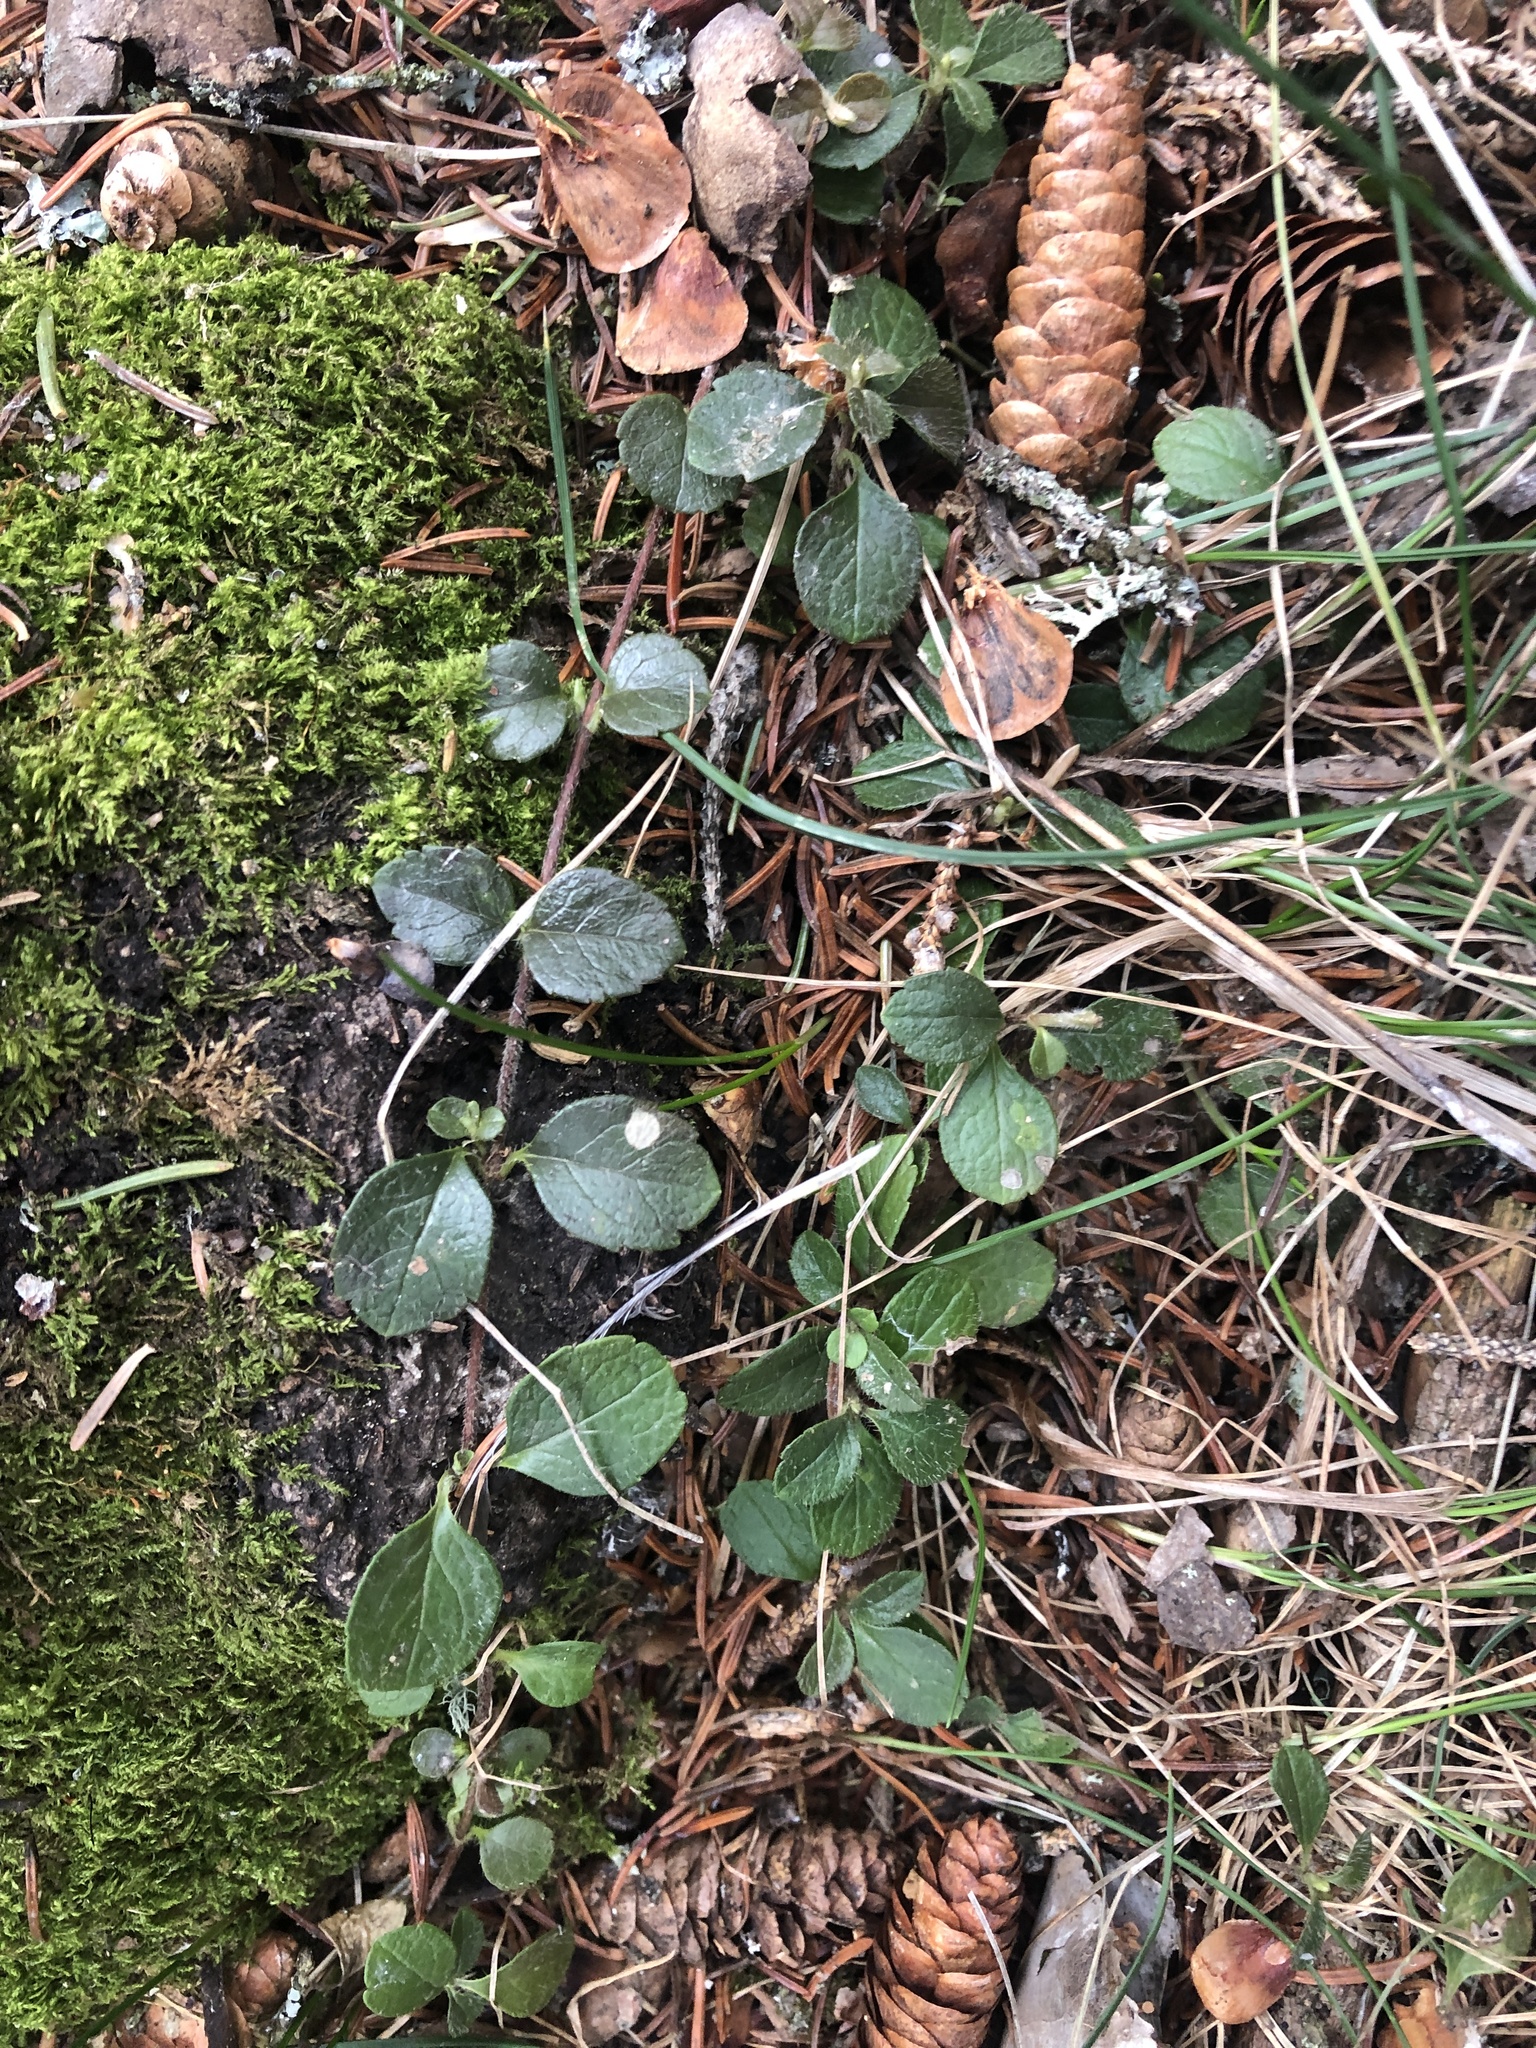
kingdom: Plantae
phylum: Tracheophyta
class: Magnoliopsida
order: Dipsacales
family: Caprifoliaceae
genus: Linnaea
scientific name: Linnaea borealis
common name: Twinflower
